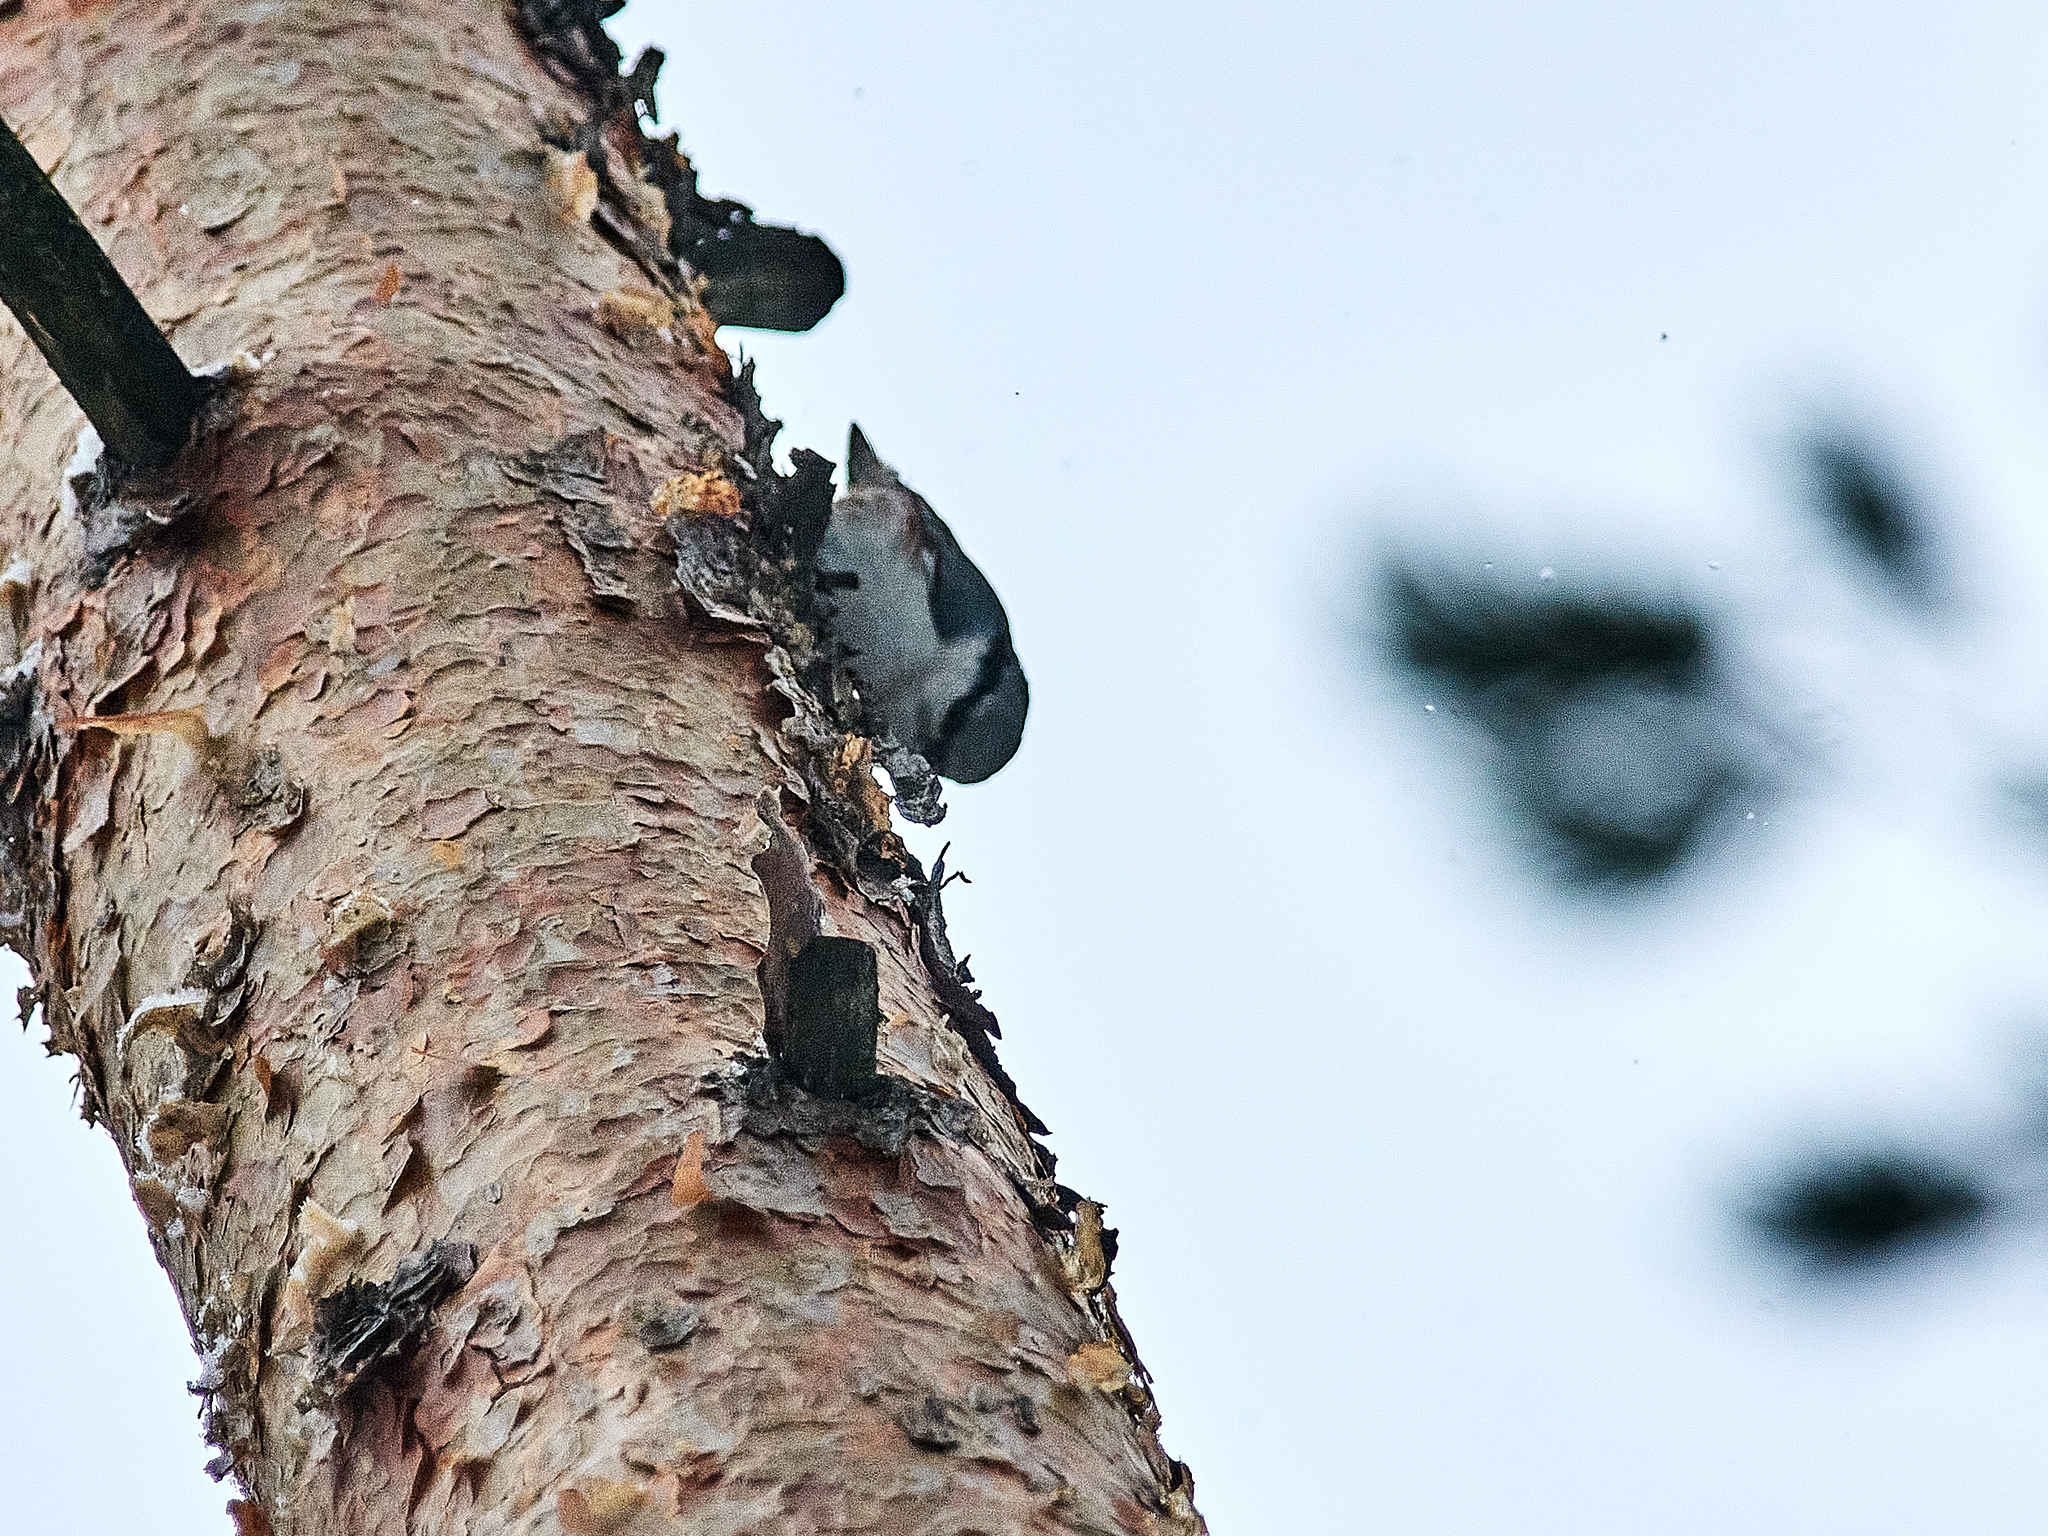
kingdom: Animalia
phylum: Chordata
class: Aves
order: Passeriformes
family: Sittidae
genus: Sitta
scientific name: Sitta europaea
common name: Eurasian nuthatch
